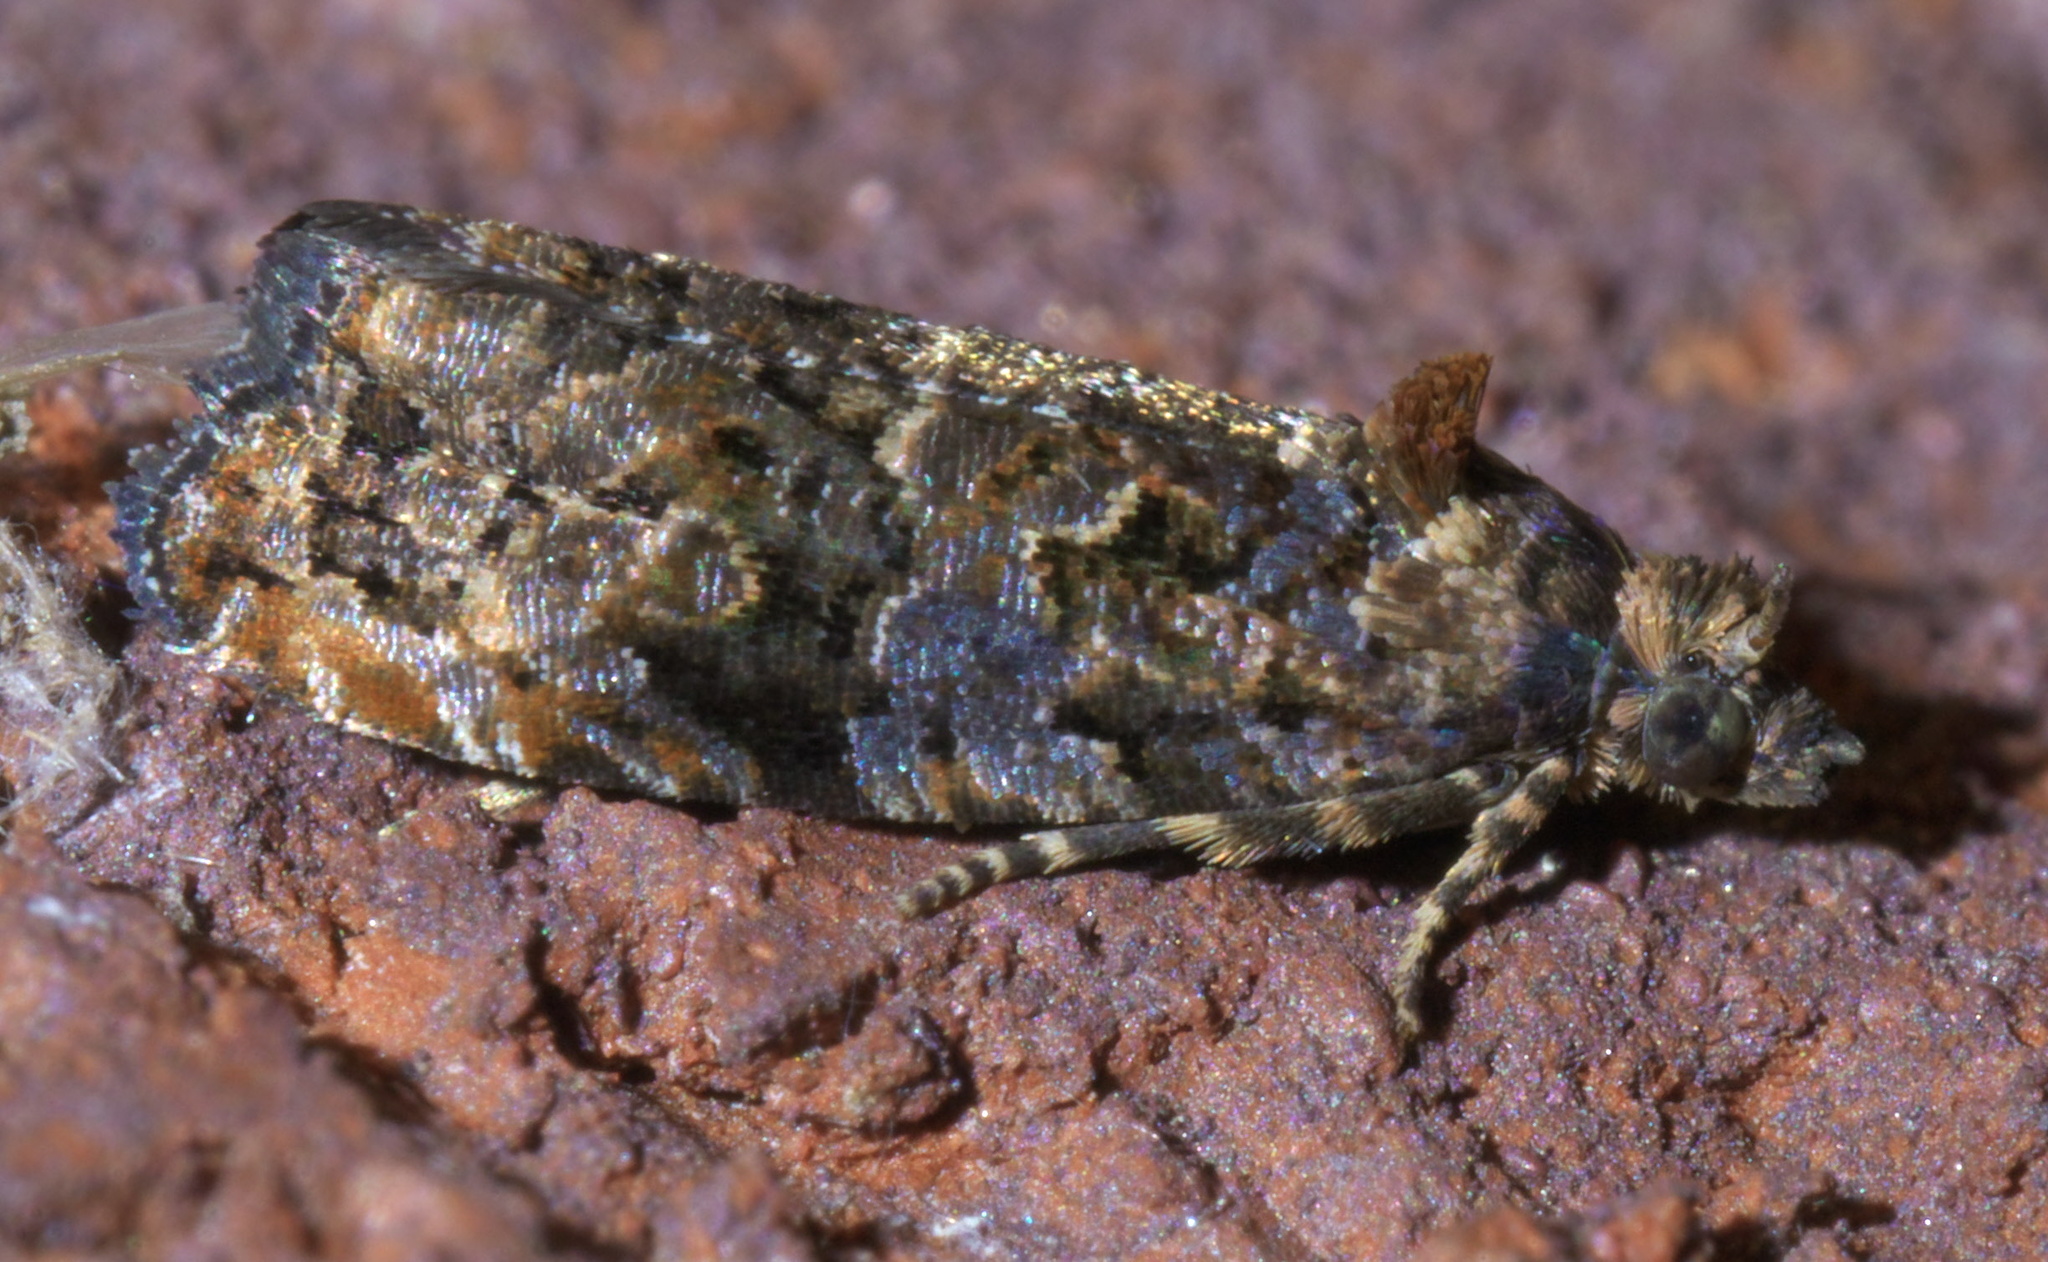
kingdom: Animalia
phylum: Arthropoda
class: Insecta
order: Lepidoptera
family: Tortricidae
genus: Endothenia
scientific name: Endothenia hebesana
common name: Verbena bud moth
